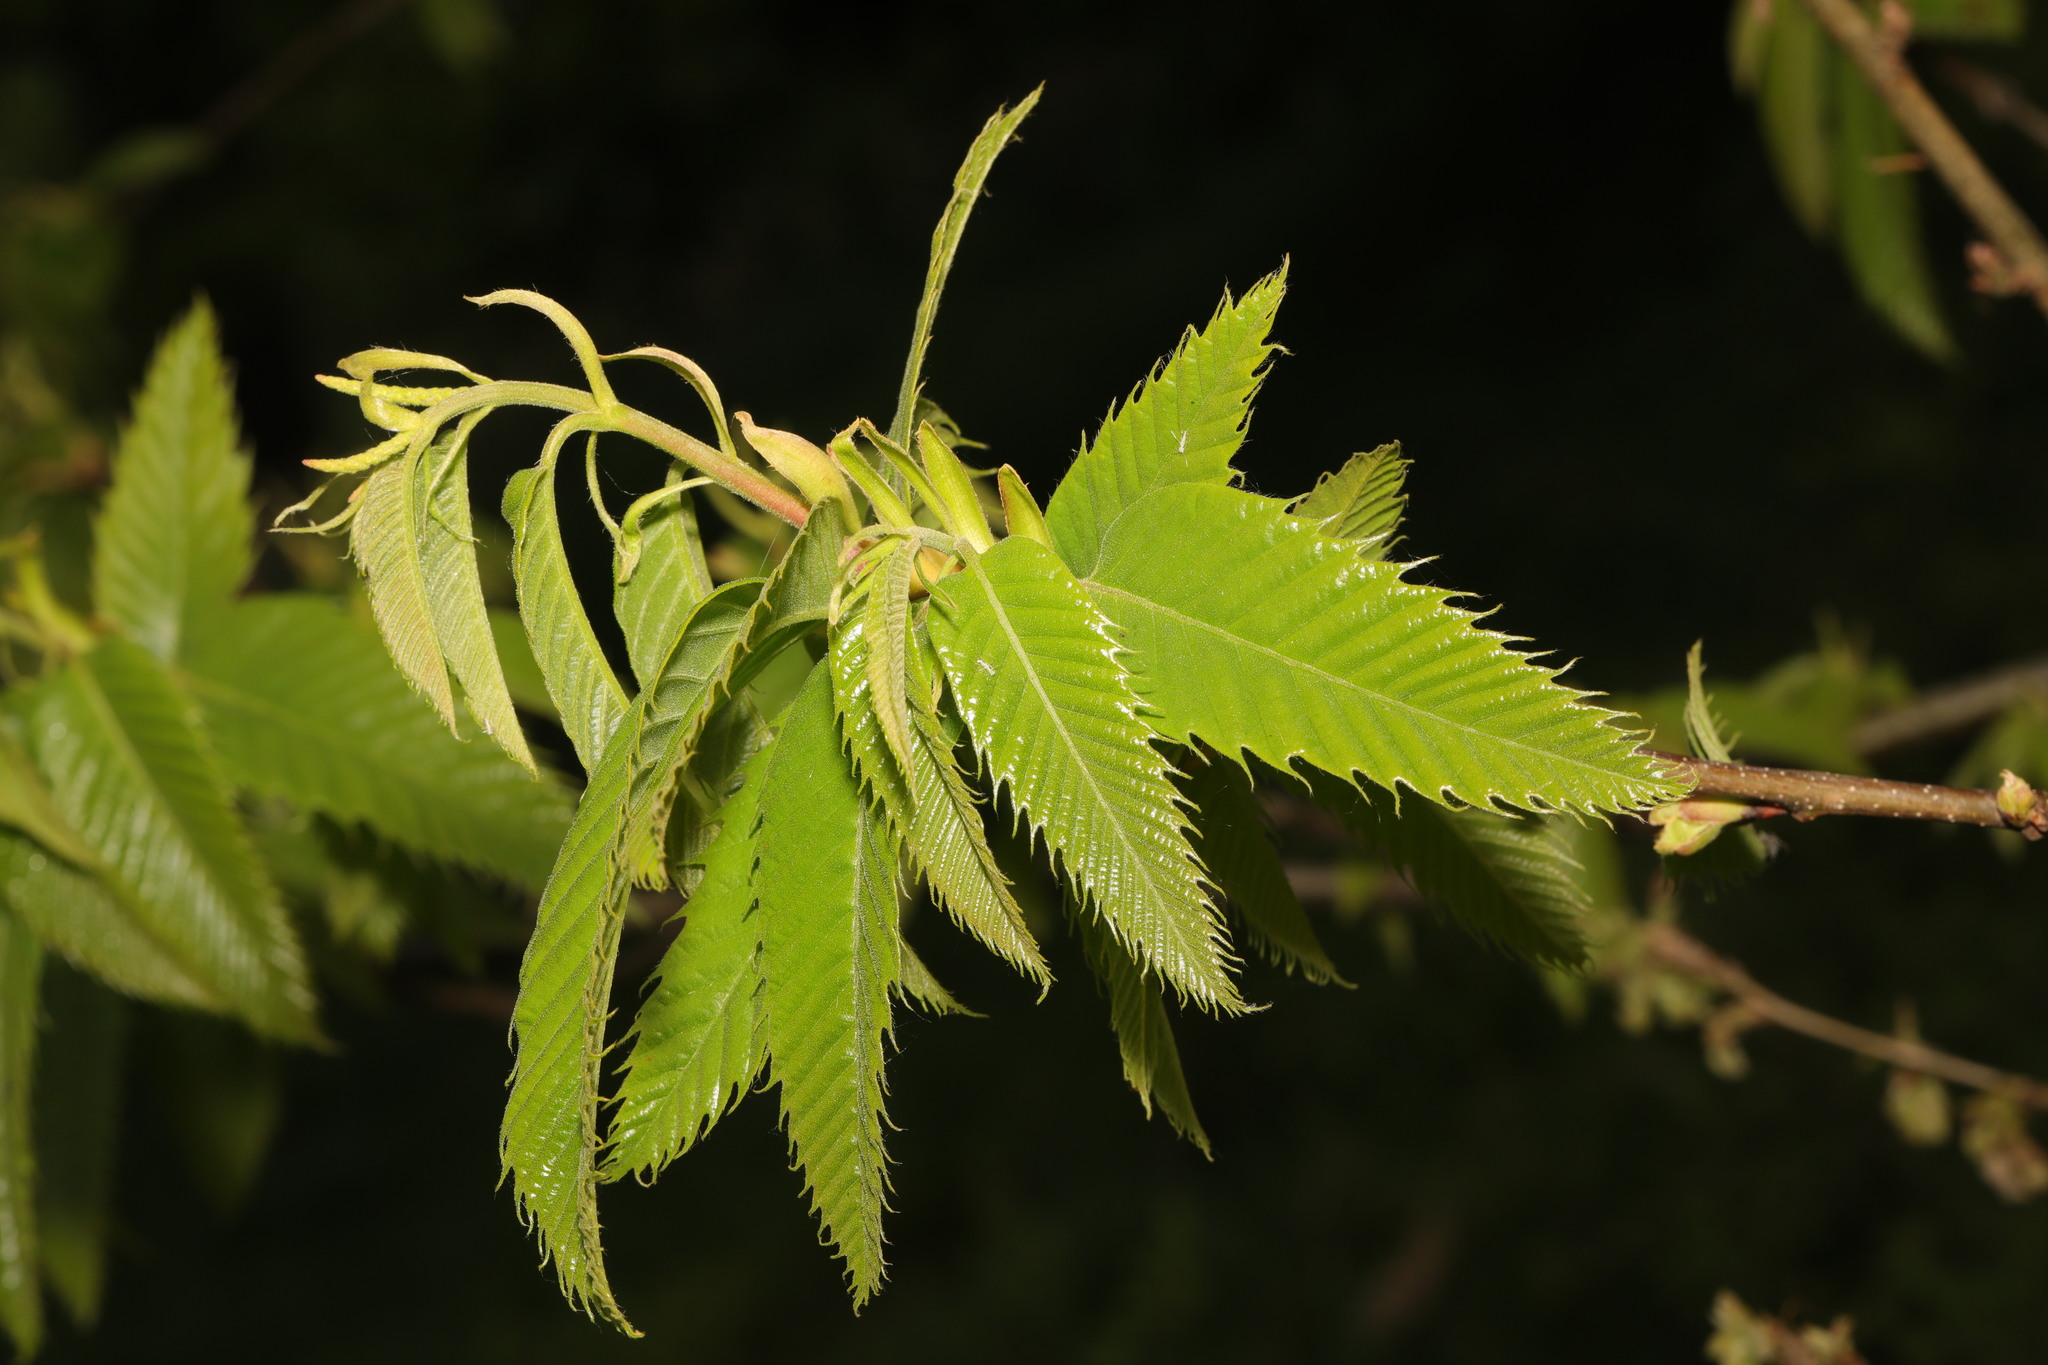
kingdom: Plantae
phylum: Tracheophyta
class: Magnoliopsida
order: Fagales
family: Fagaceae
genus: Castanea
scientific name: Castanea sativa
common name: Sweet chestnut
